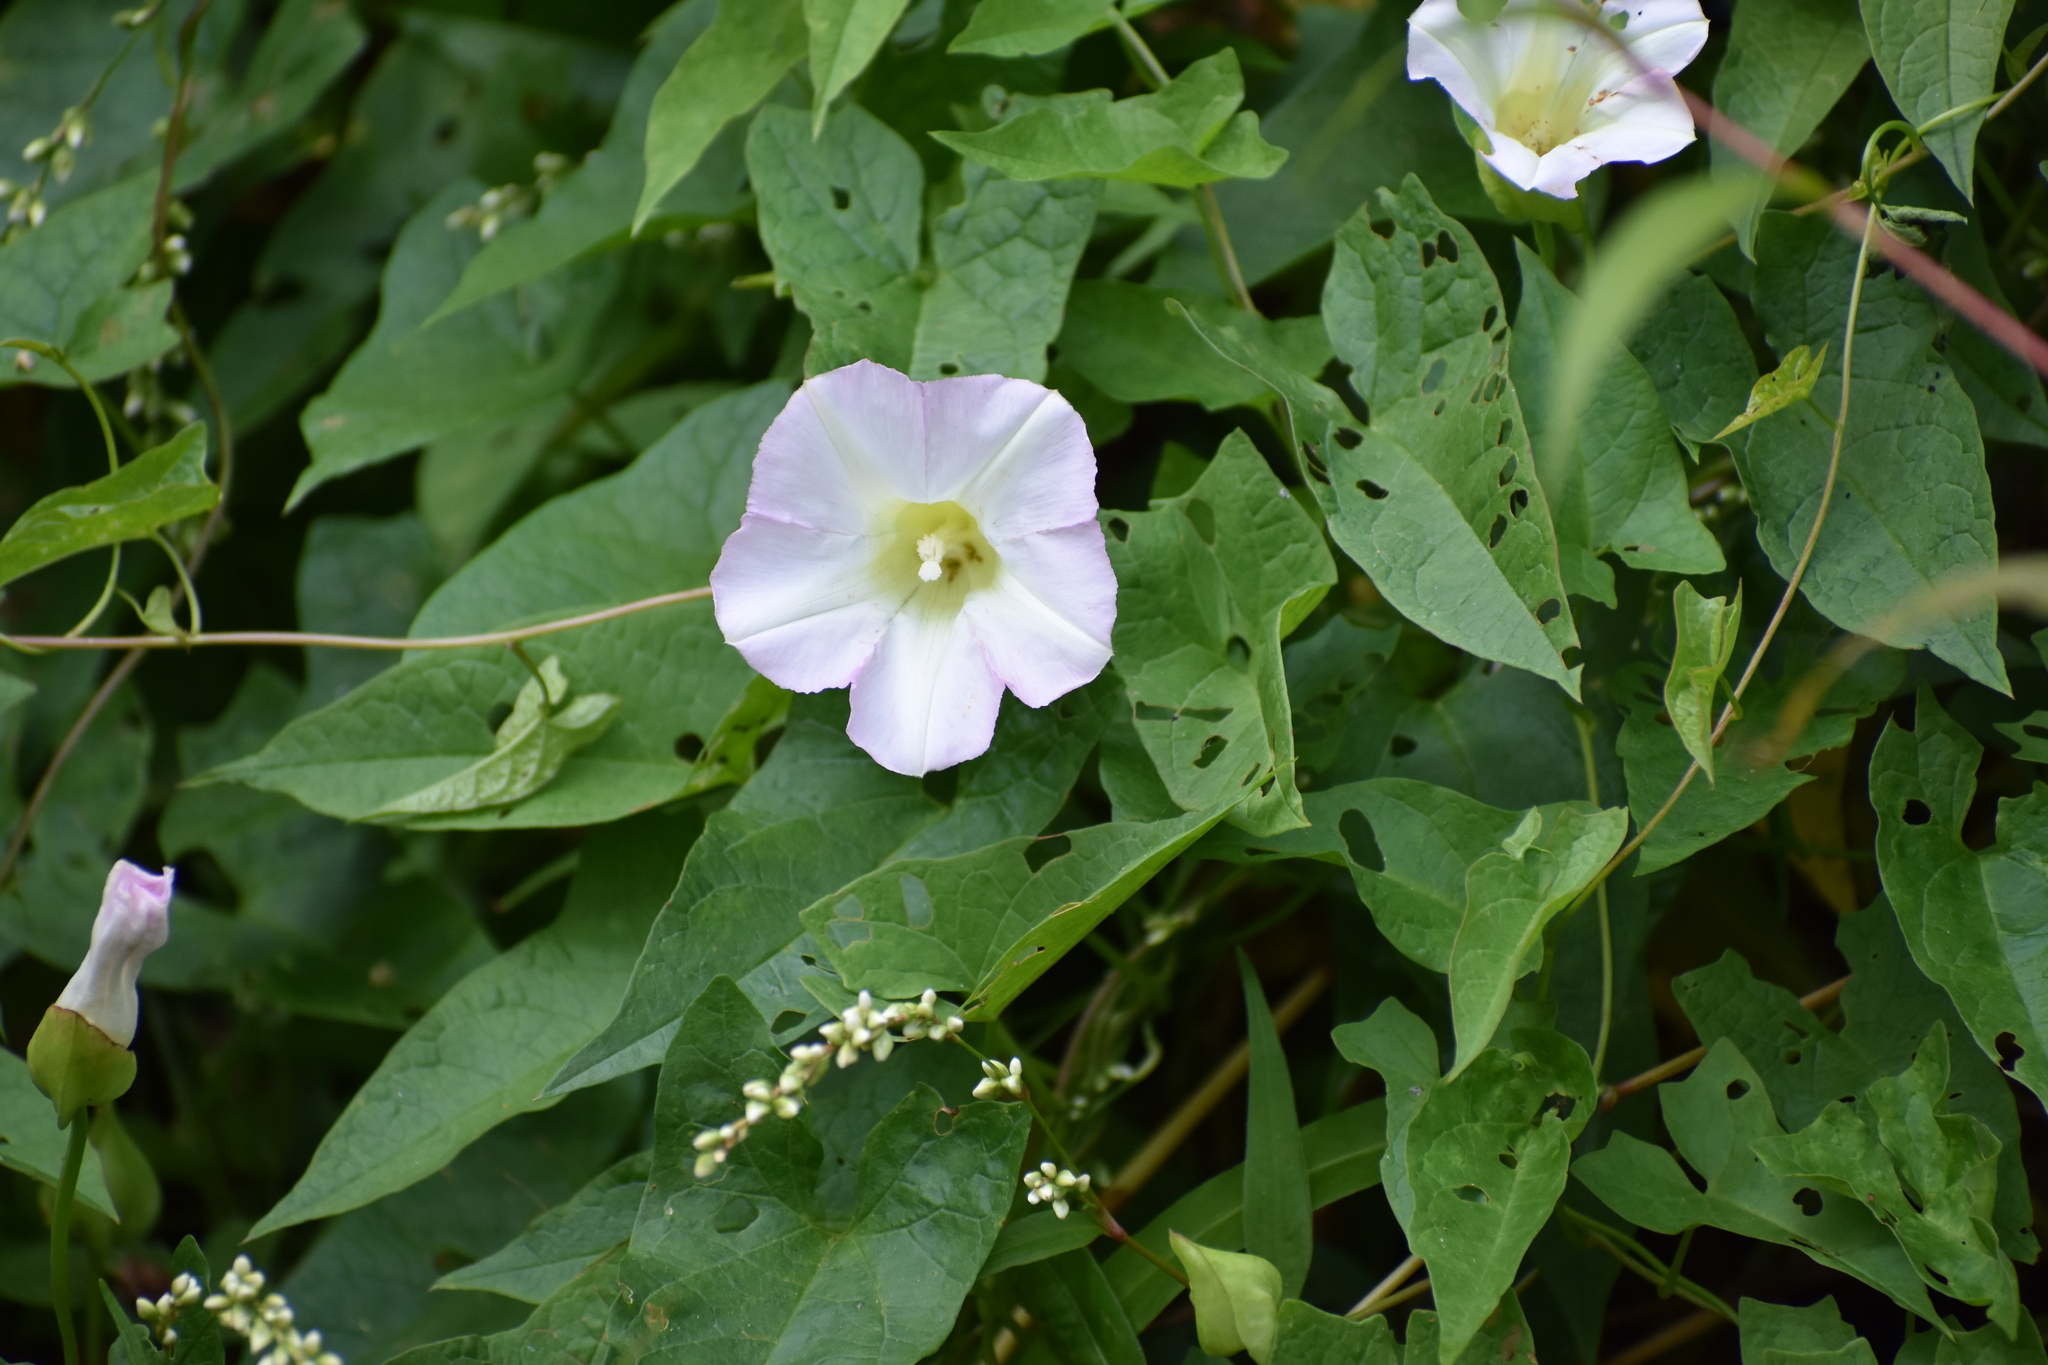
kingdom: Plantae
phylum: Tracheophyta
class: Magnoliopsida
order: Solanales
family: Convolvulaceae
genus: Calystegia
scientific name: Calystegia sepium
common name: Hedge bindweed
